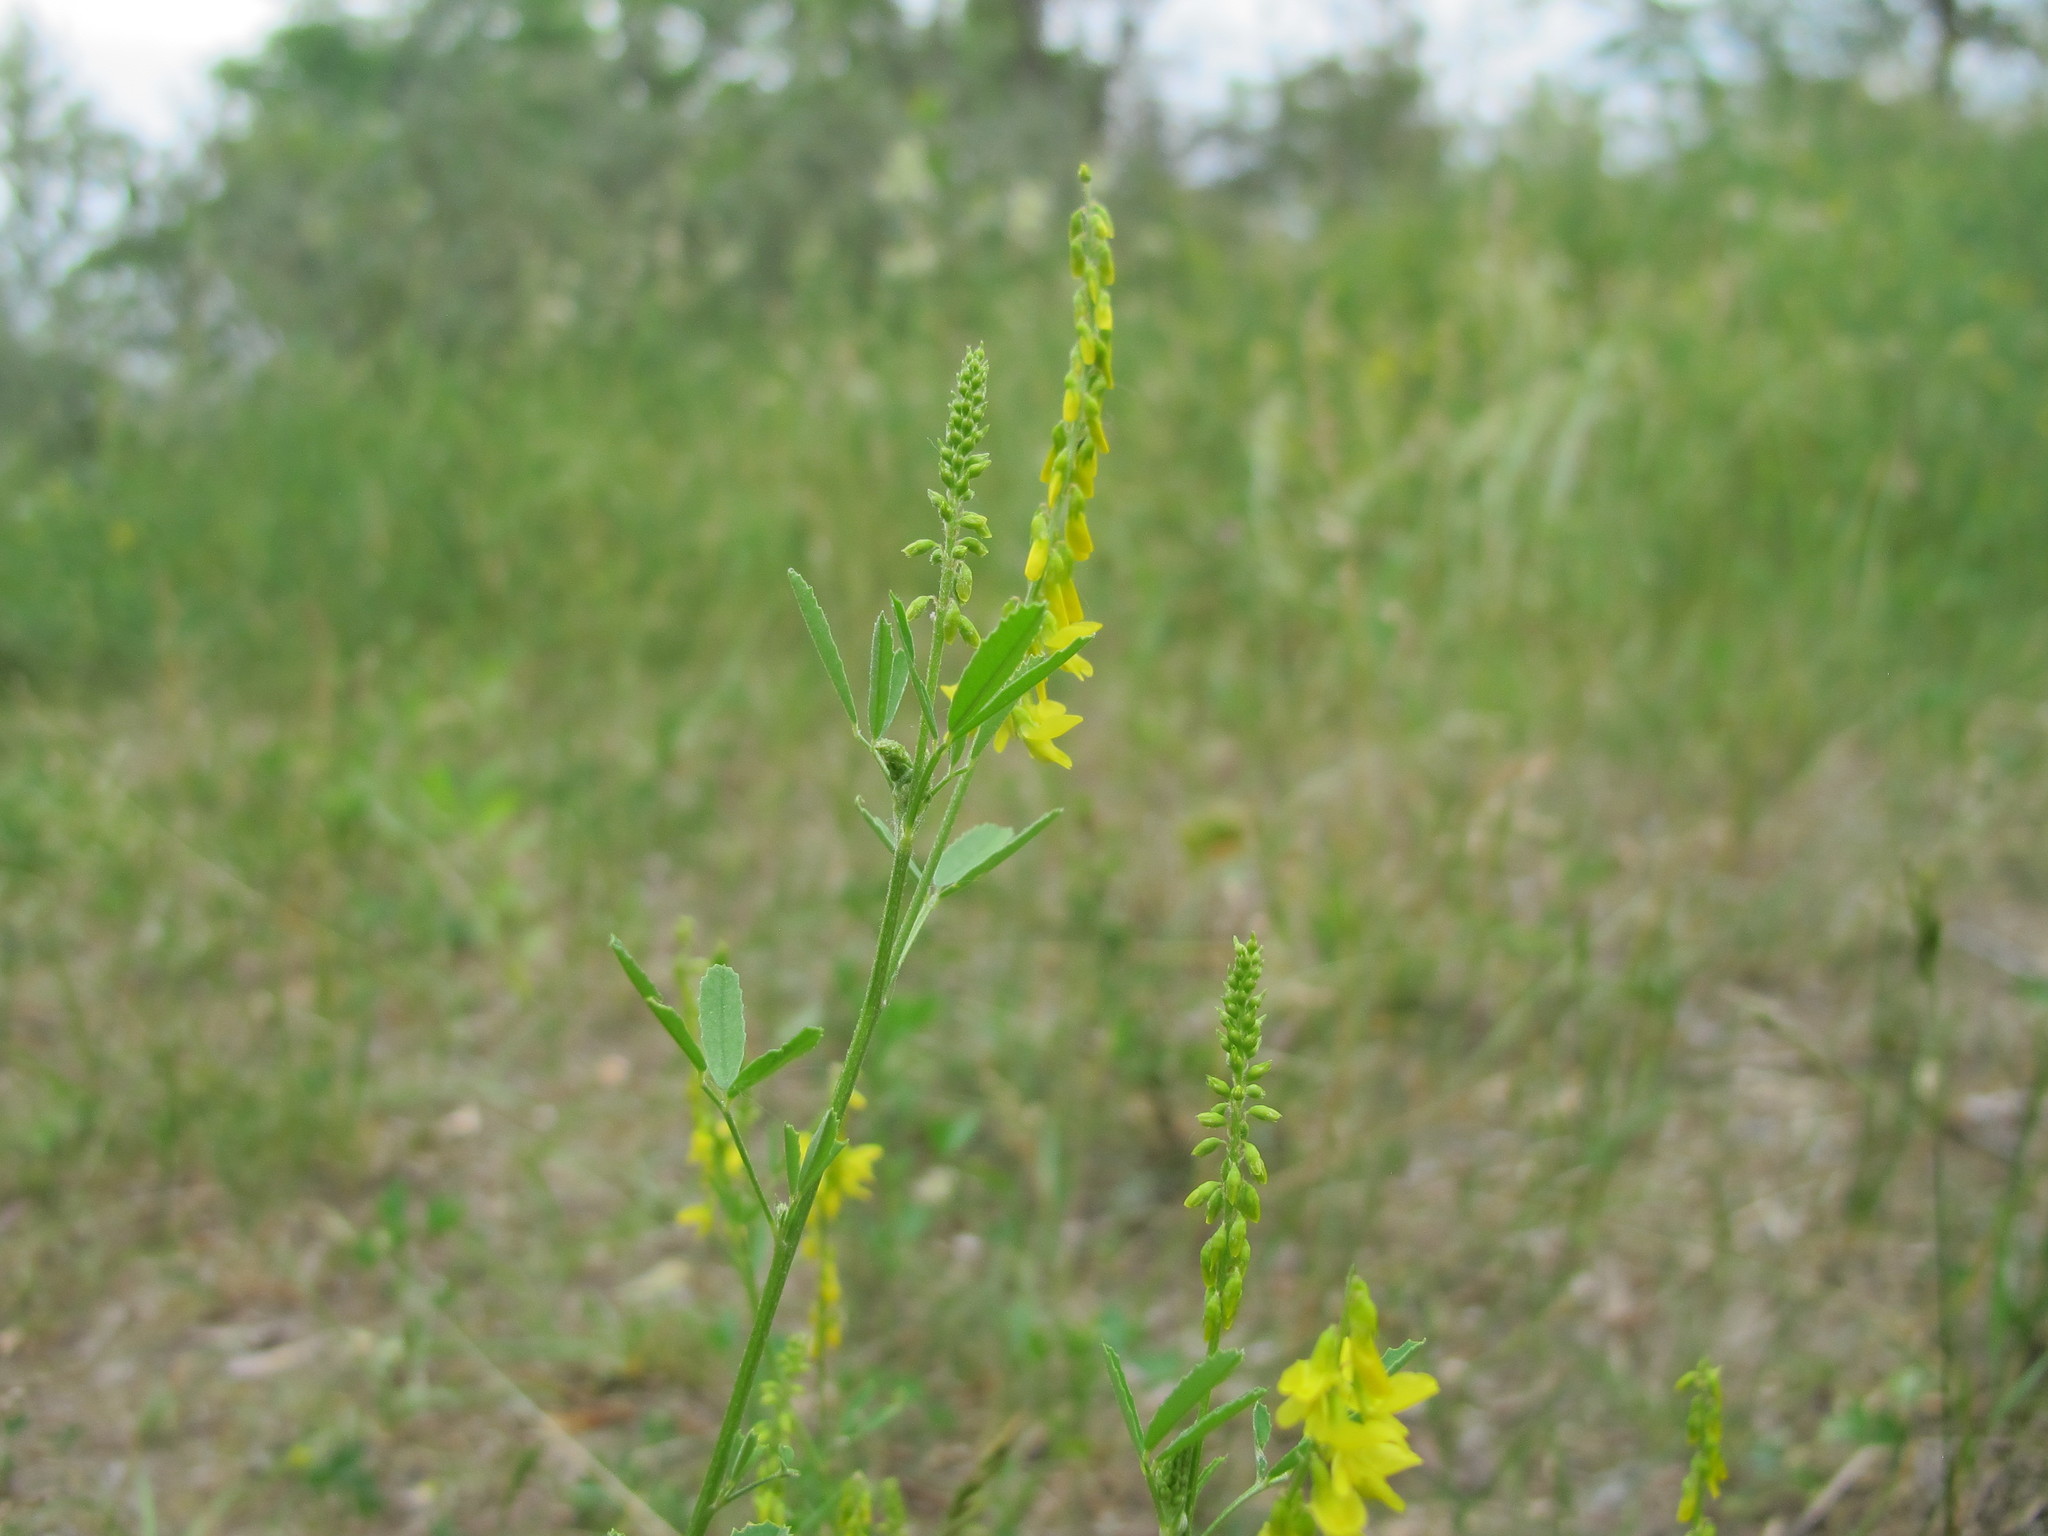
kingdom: Plantae
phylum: Tracheophyta
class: Magnoliopsida
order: Fabales
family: Fabaceae
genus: Melilotus
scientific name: Melilotus officinalis
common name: Sweetclover
